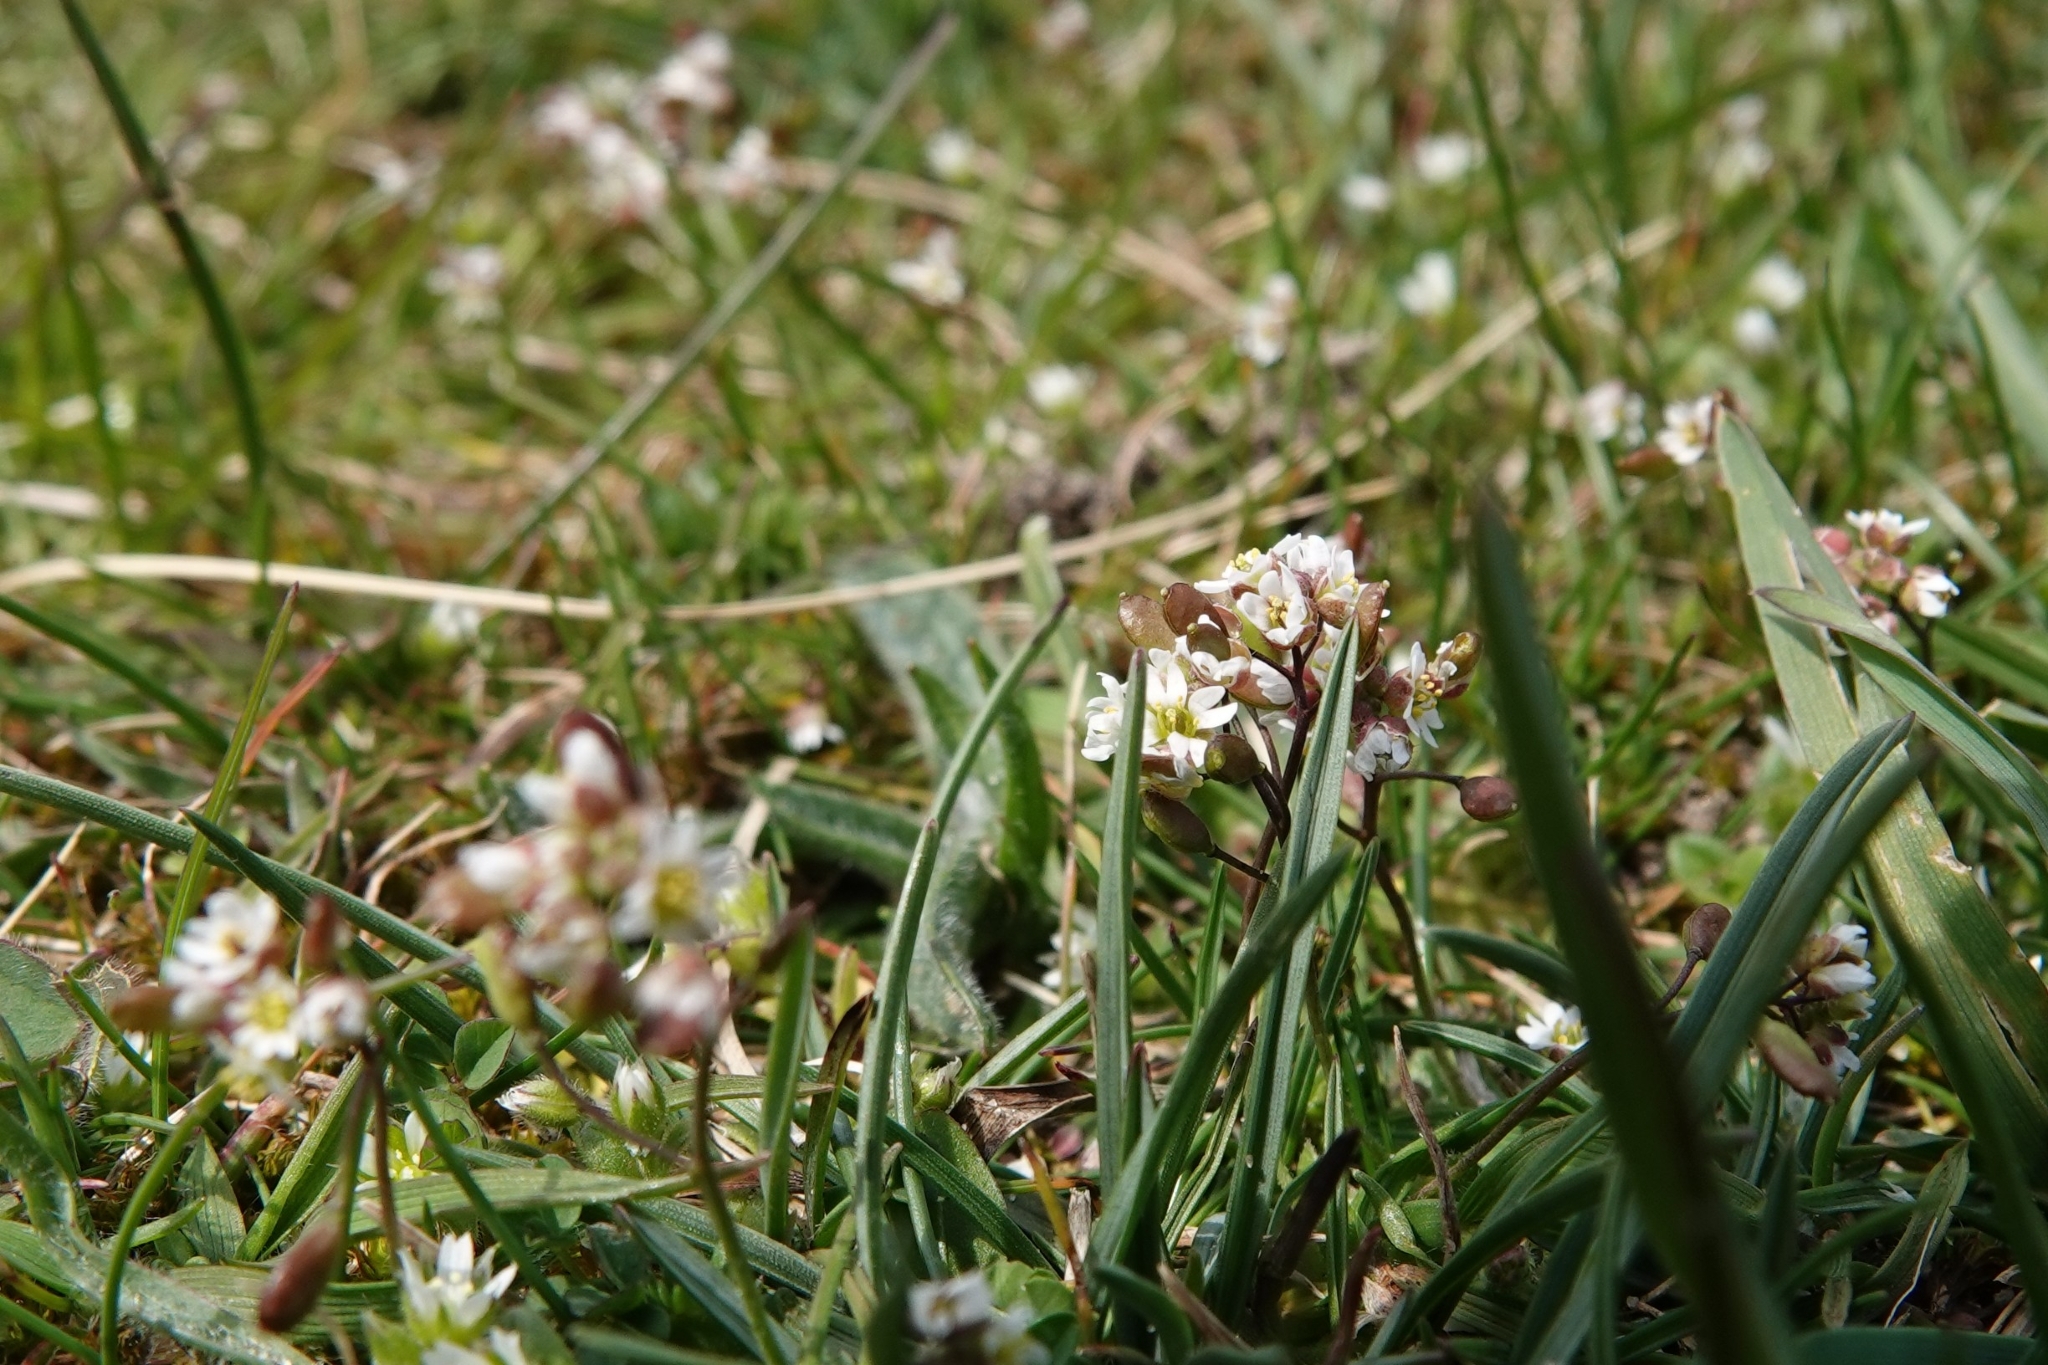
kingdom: Plantae
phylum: Tracheophyta
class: Magnoliopsida
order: Brassicales
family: Brassicaceae
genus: Draba
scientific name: Draba verna
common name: Spring draba
